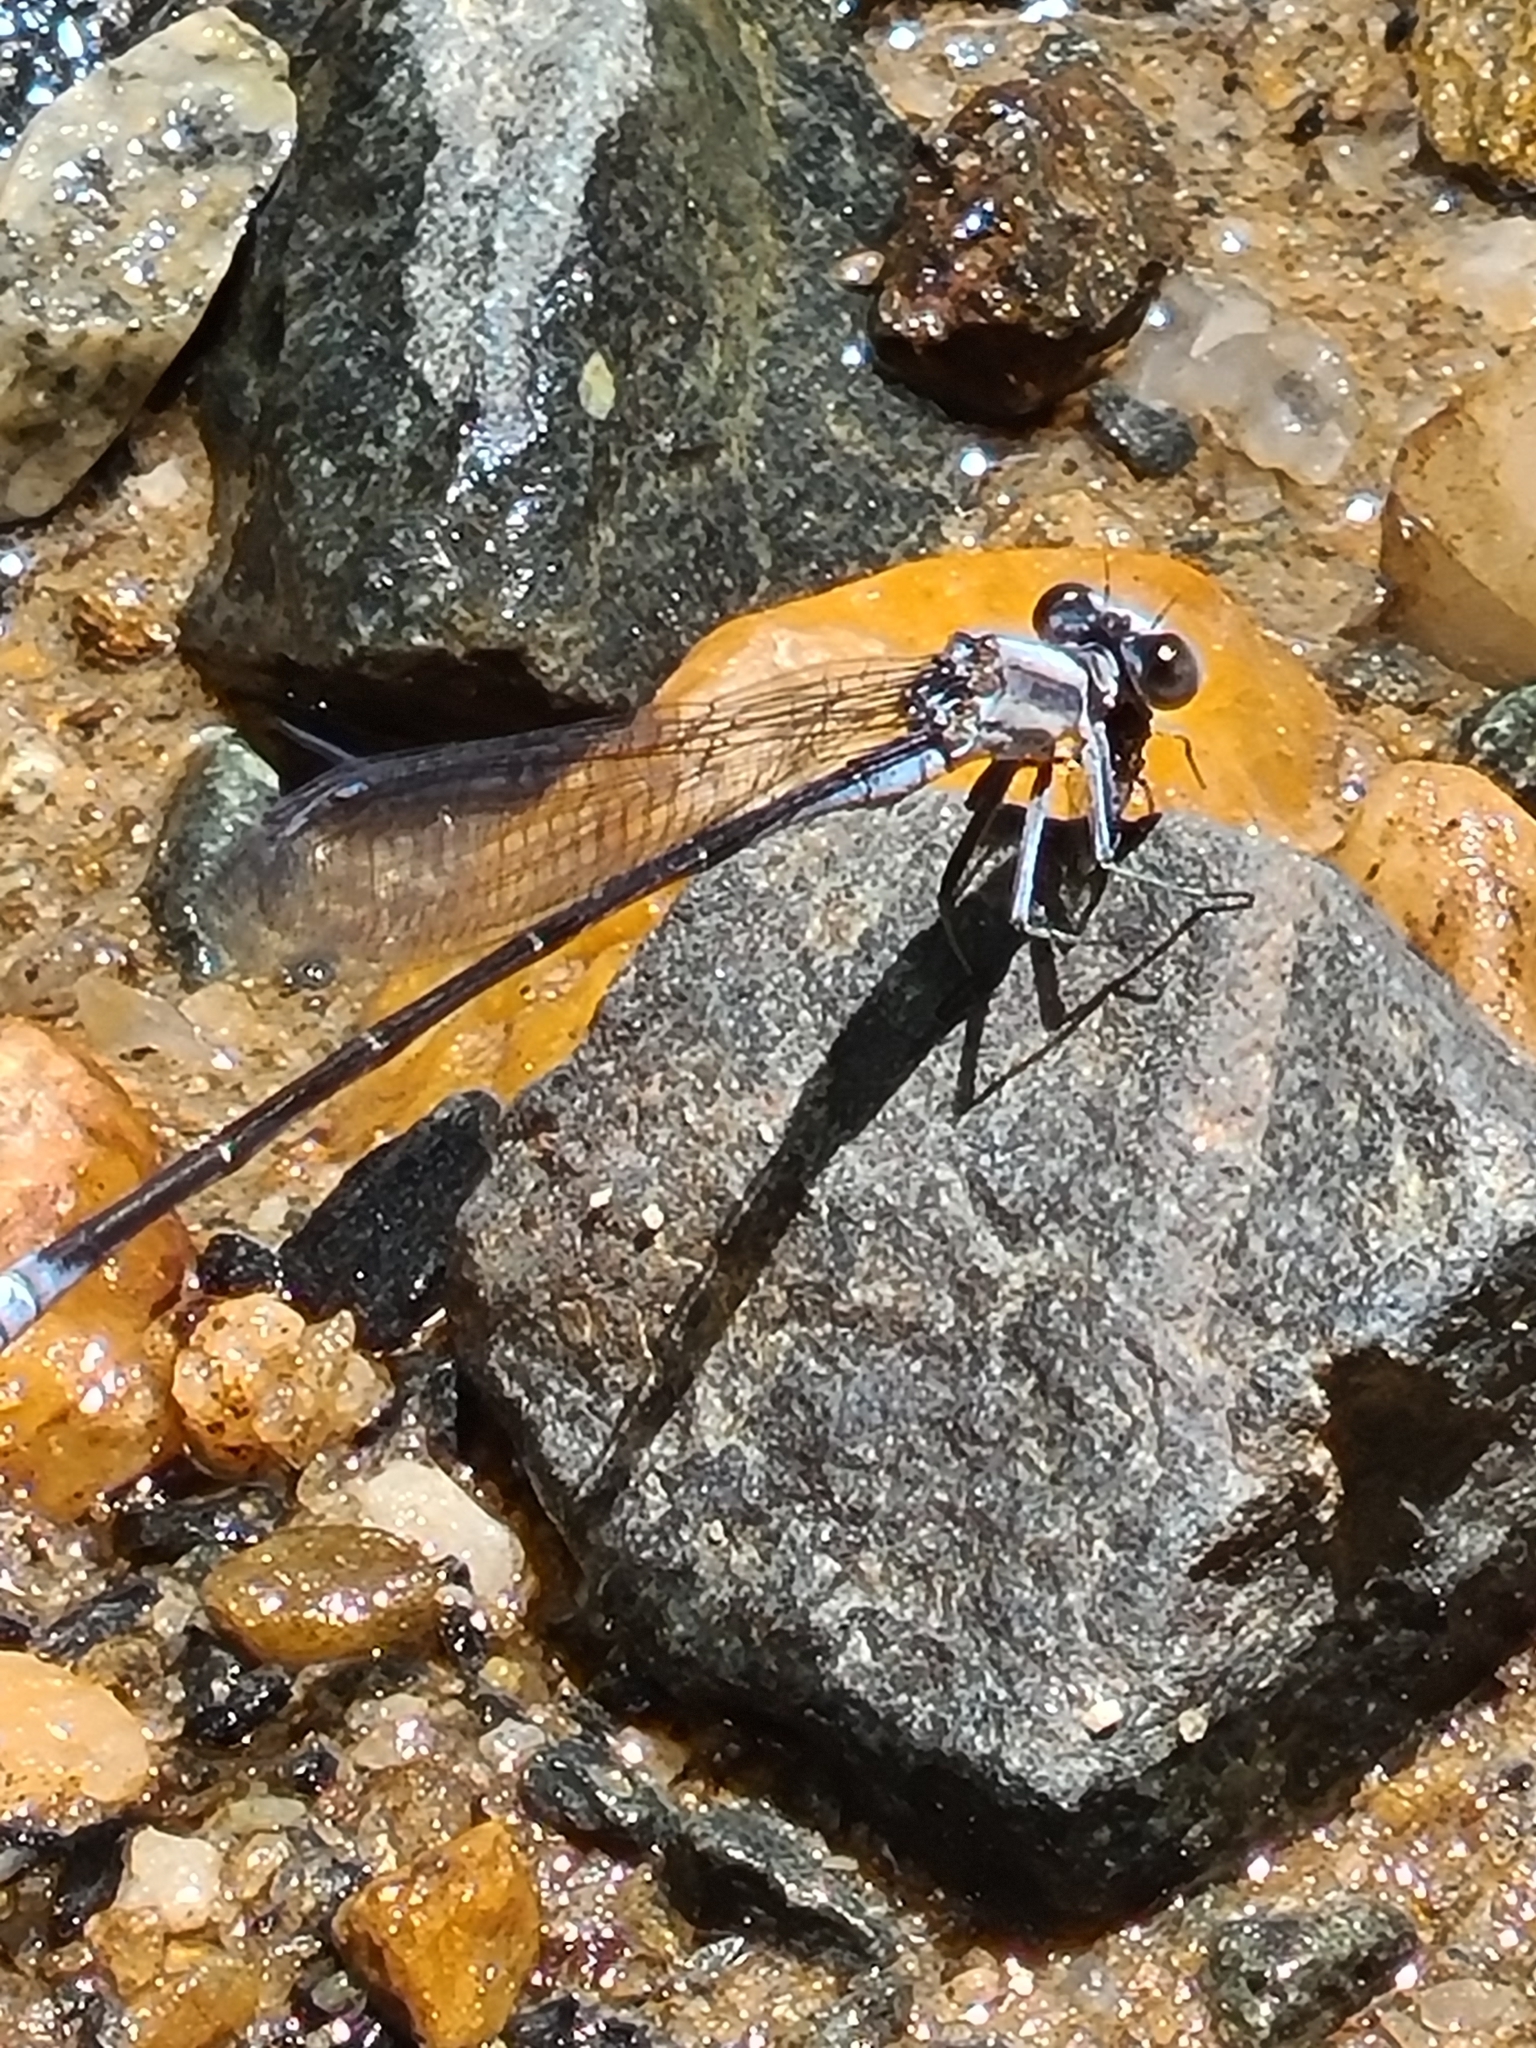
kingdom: Animalia
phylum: Arthropoda
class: Insecta
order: Odonata
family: Coenagrionidae
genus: Argia
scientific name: Argia moesta
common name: Powdered dancer
